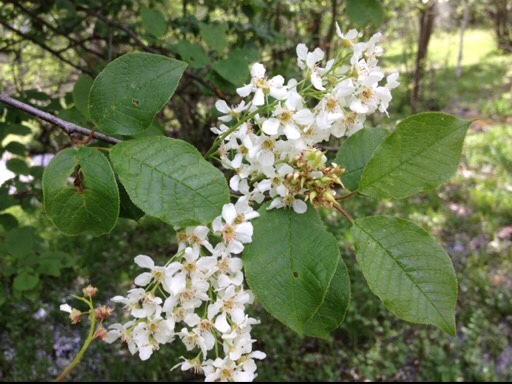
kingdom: Plantae
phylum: Tracheophyta
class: Magnoliopsida
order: Rosales
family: Rosaceae
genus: Prunus
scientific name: Prunus padus
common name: Bird cherry
